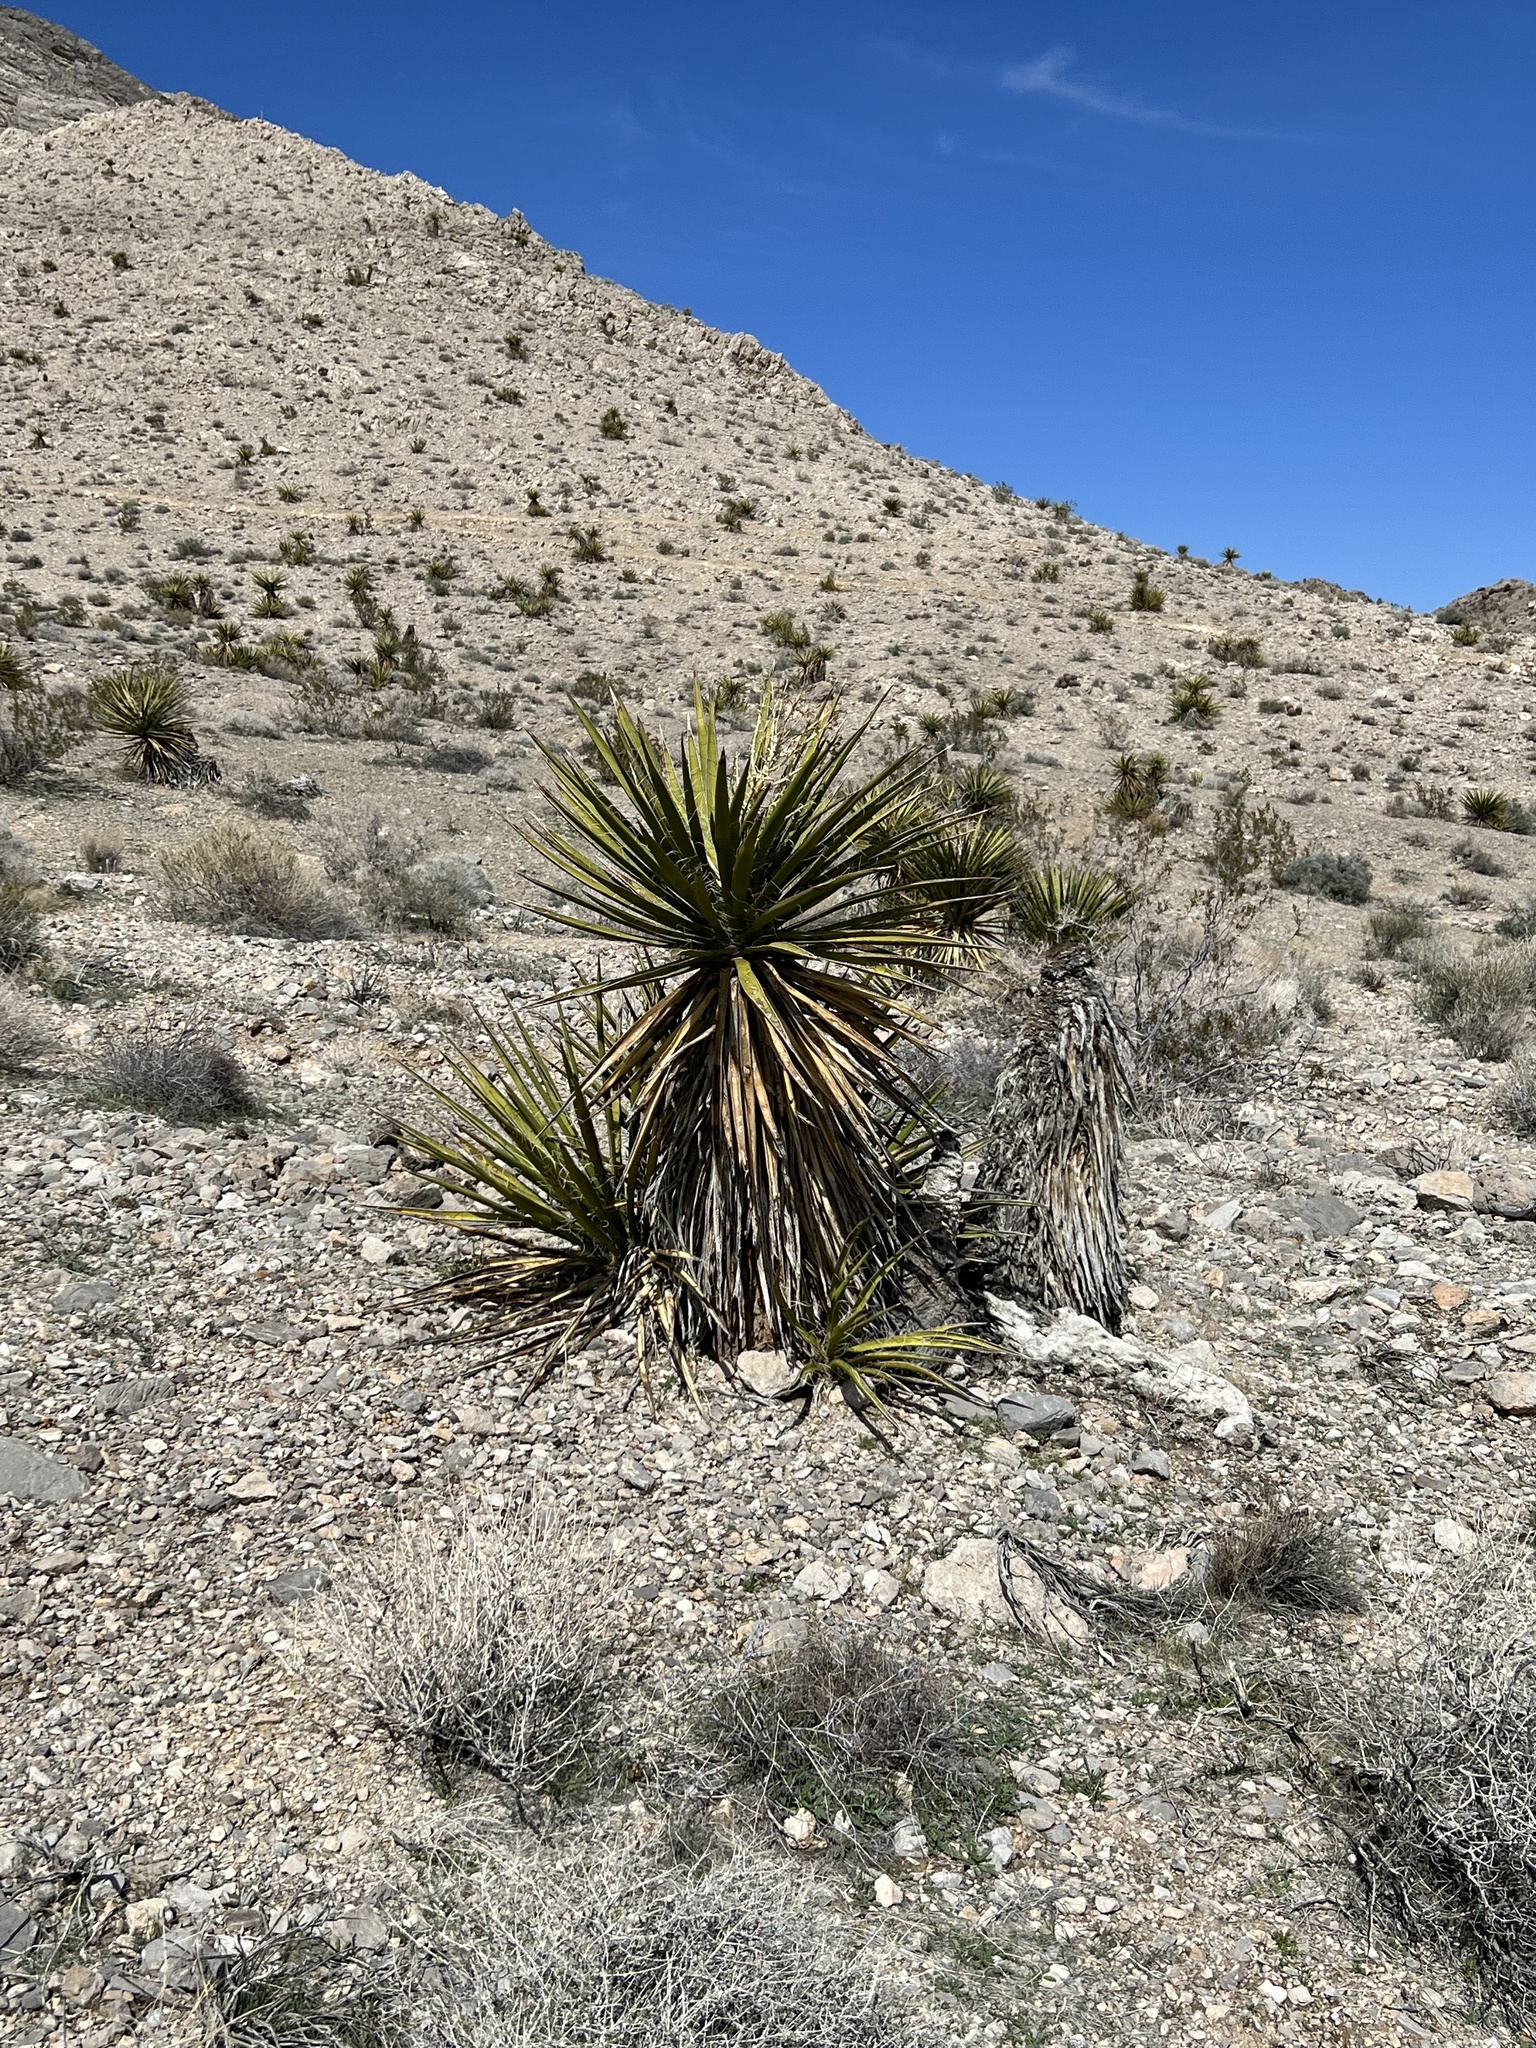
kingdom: Plantae
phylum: Tracheophyta
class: Liliopsida
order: Asparagales
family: Asparagaceae
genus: Yucca
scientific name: Yucca schidigera
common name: Mojave yucca
